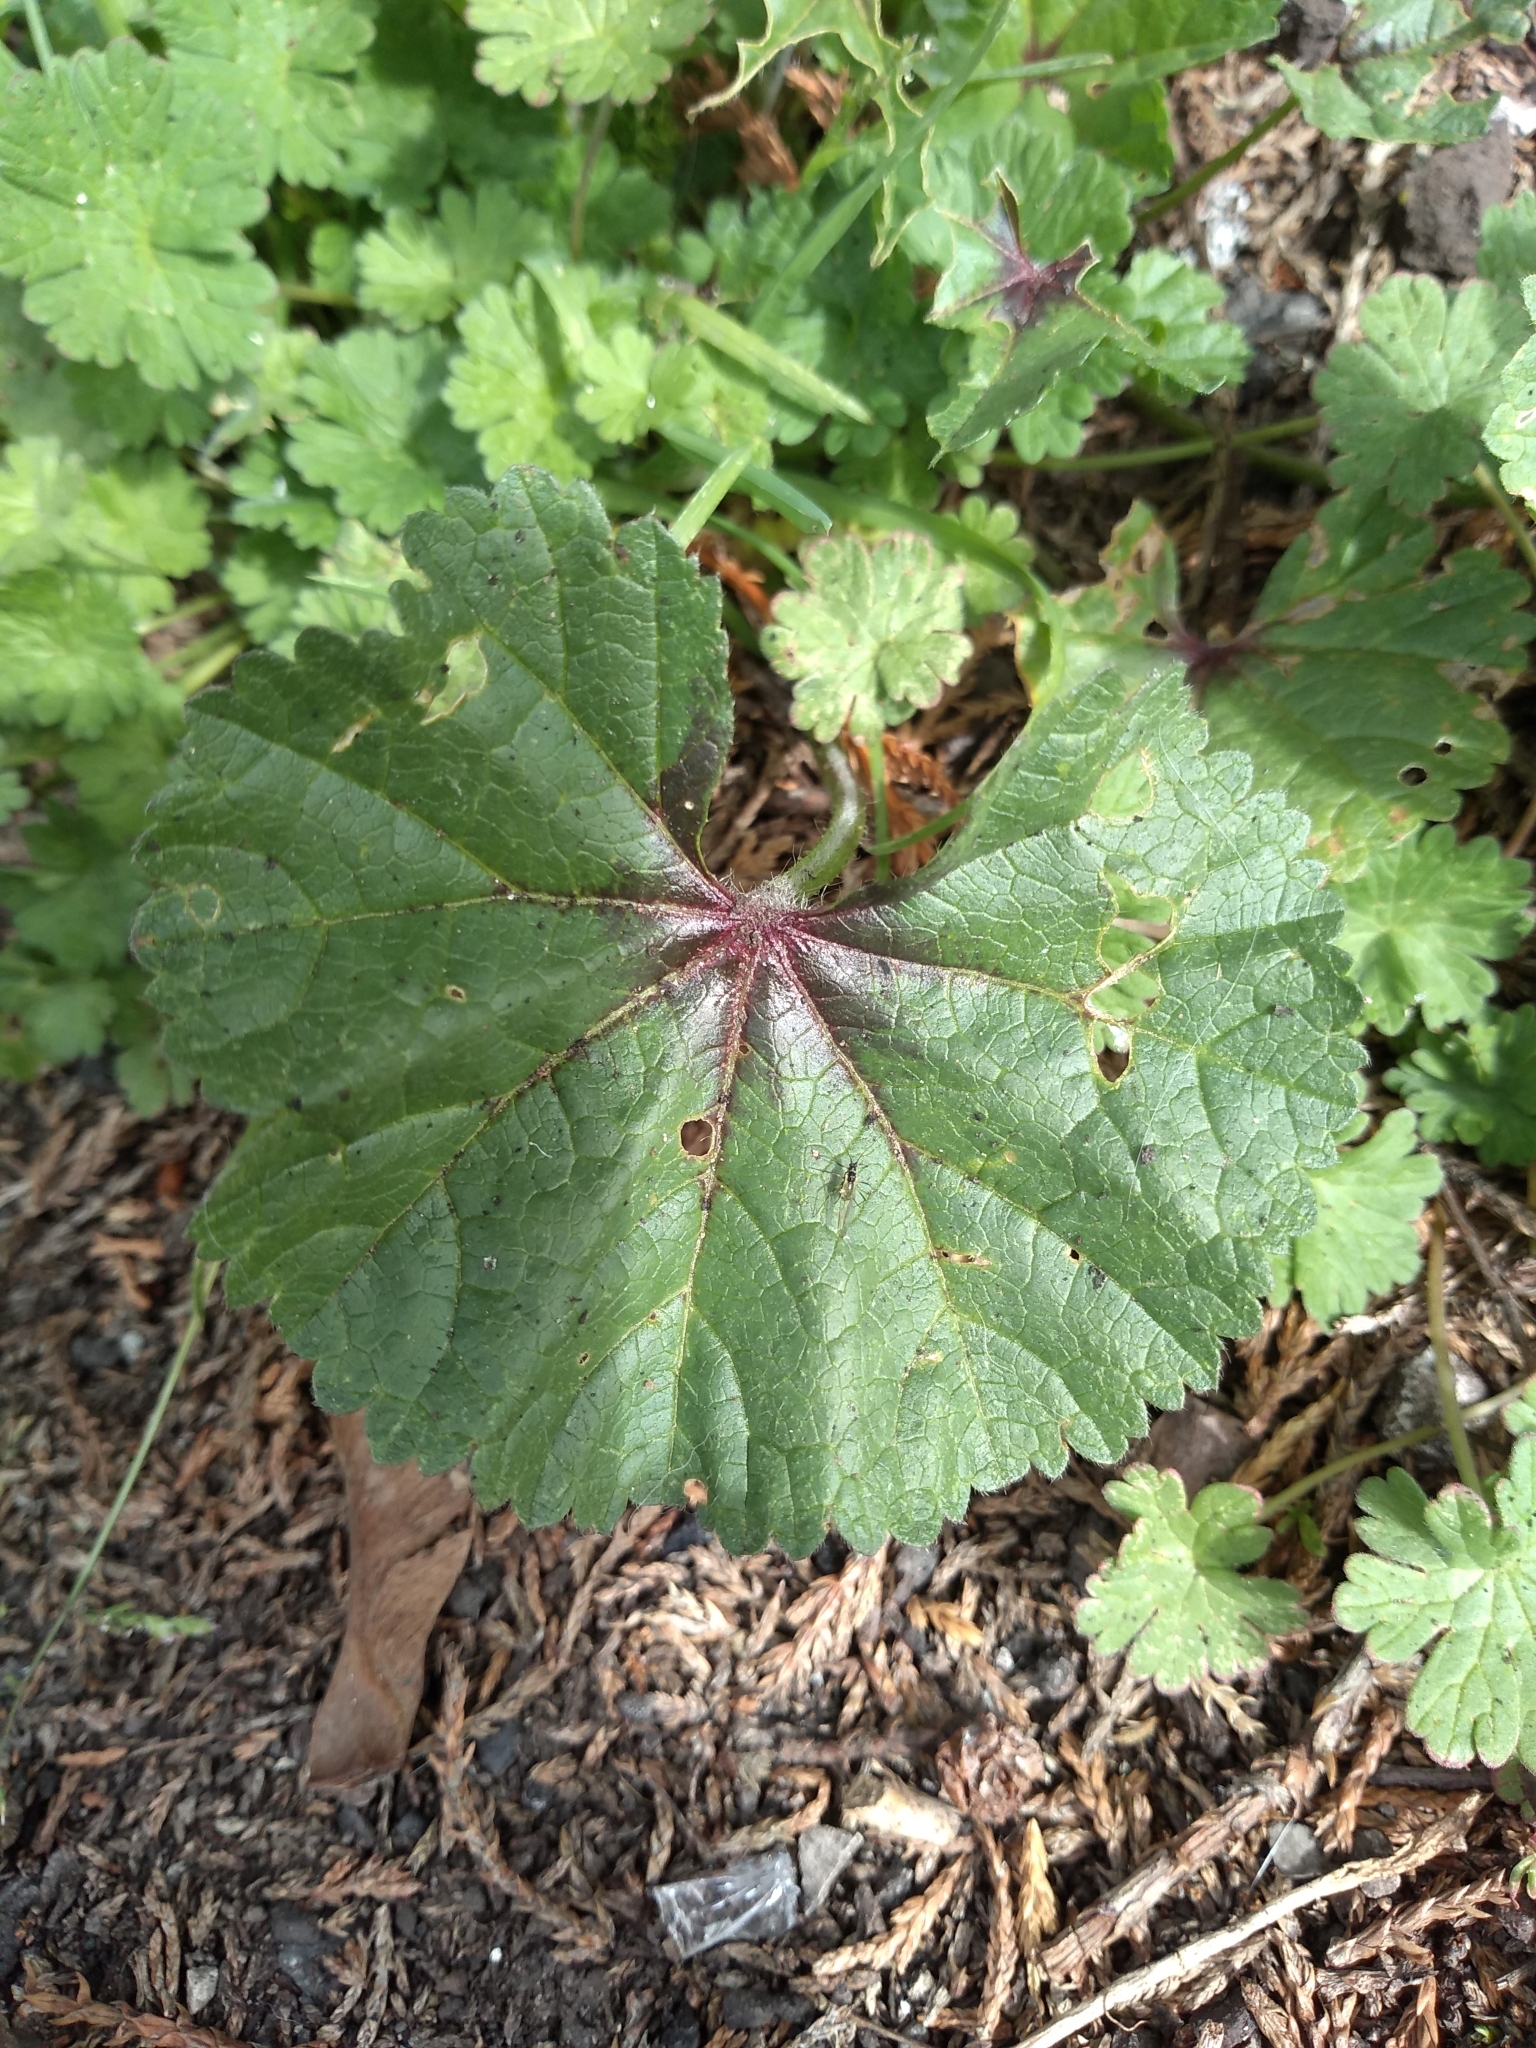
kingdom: Plantae
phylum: Tracheophyta
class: Magnoliopsida
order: Malvales
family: Malvaceae
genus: Malva
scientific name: Malva sylvestris
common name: Common mallow
